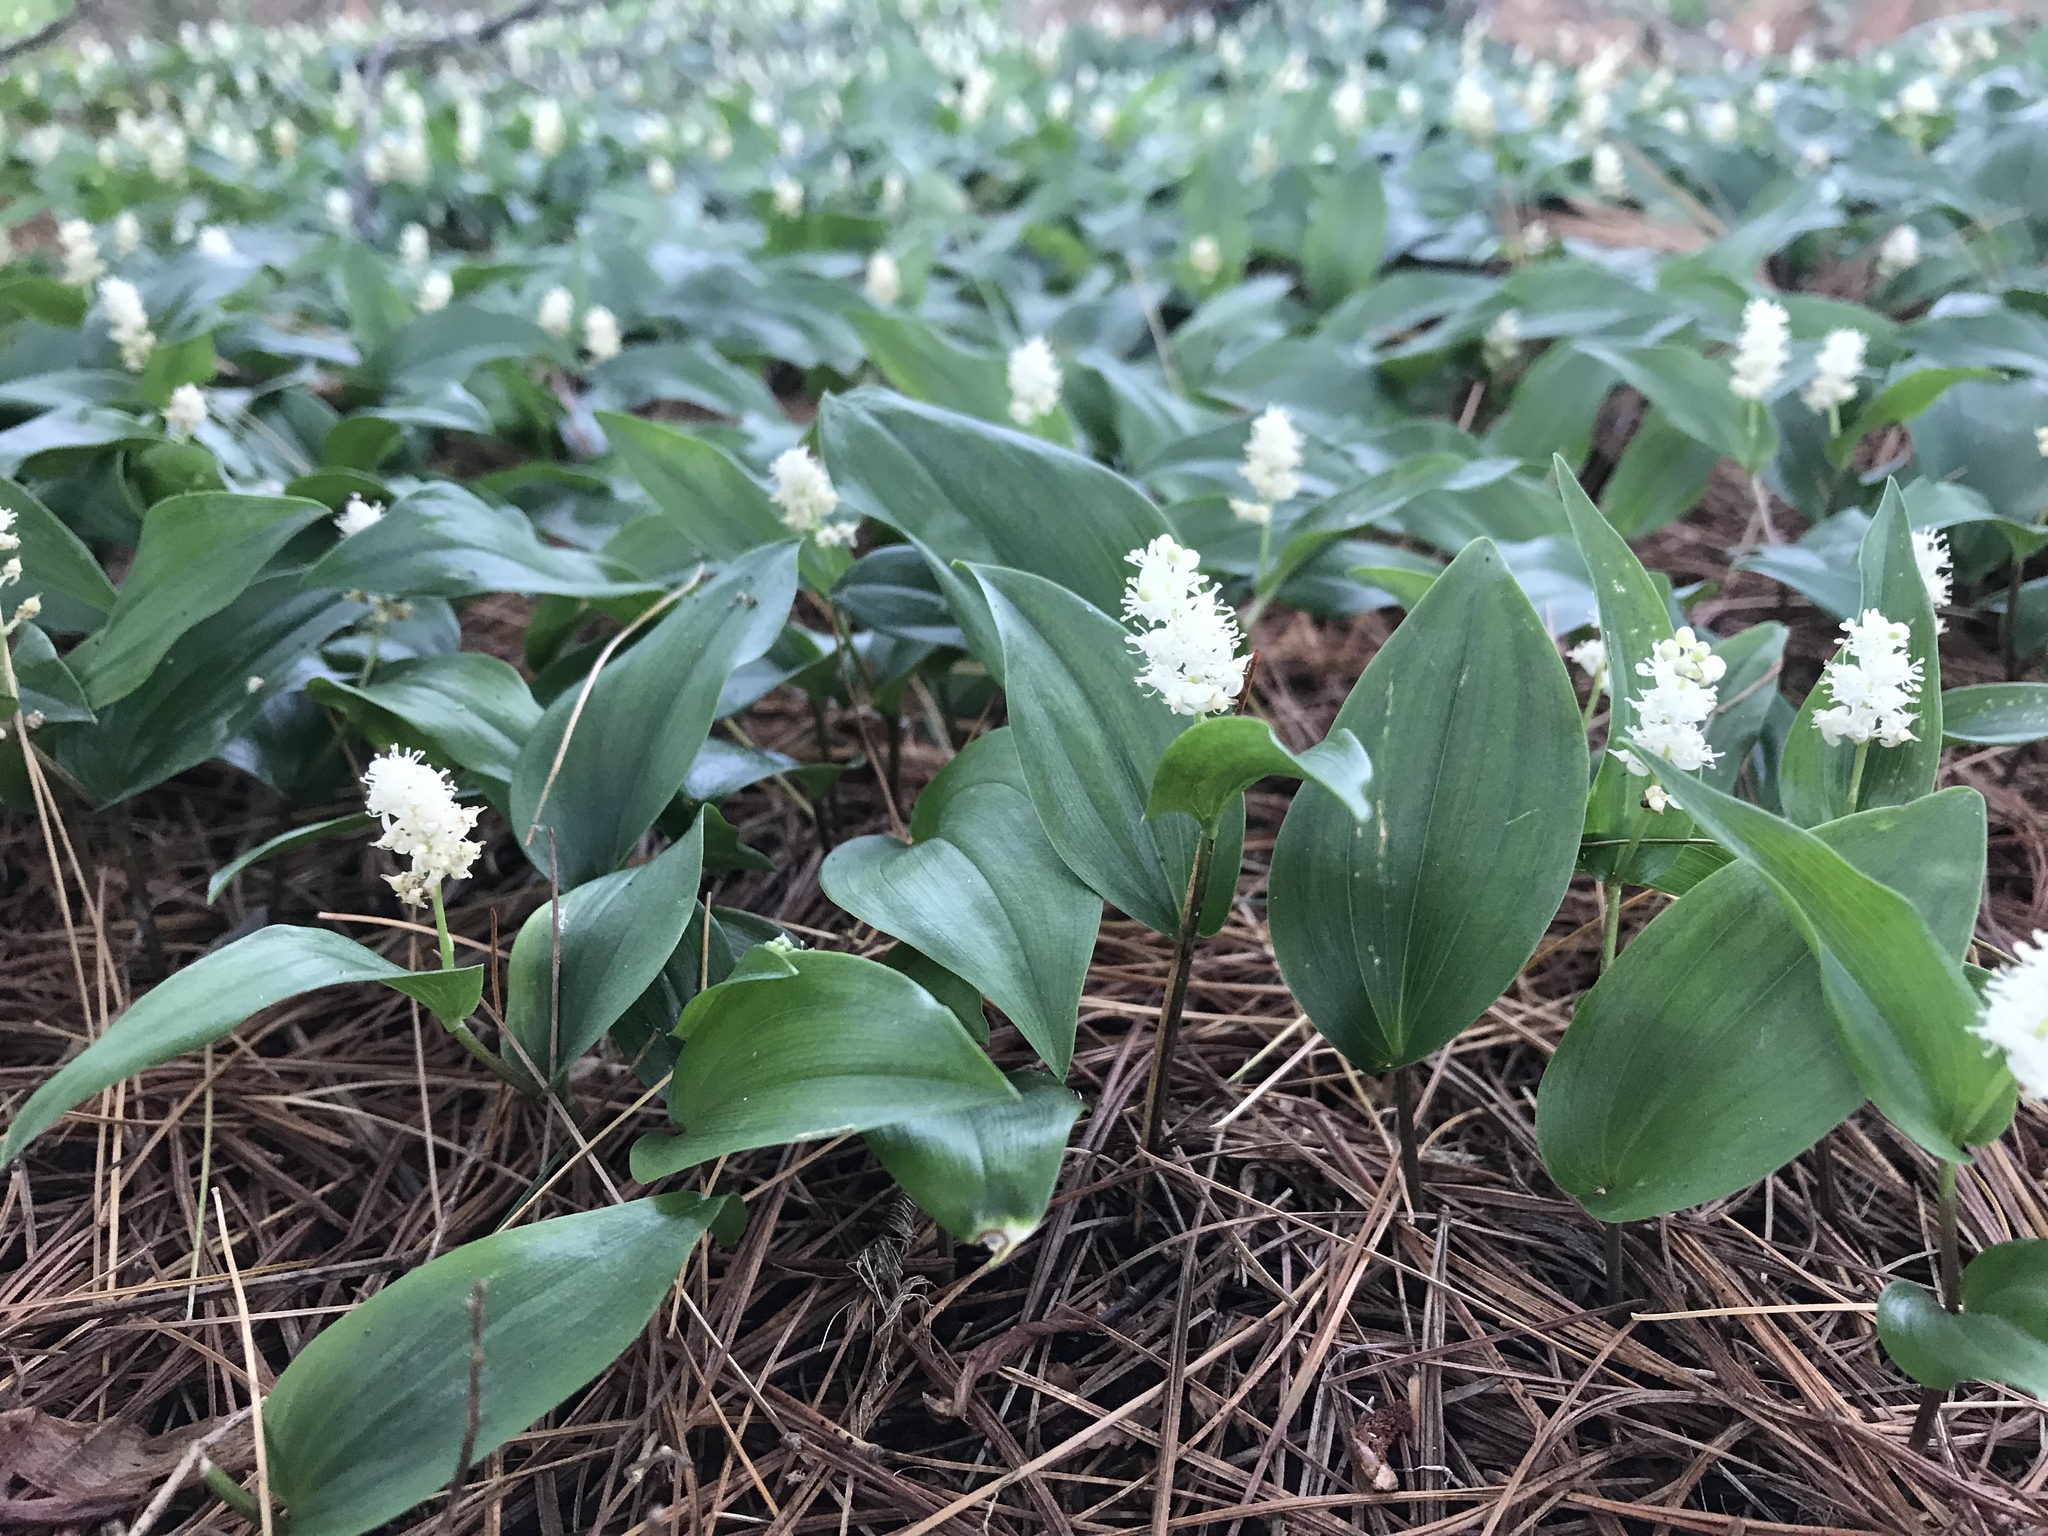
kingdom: Plantae
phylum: Tracheophyta
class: Liliopsida
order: Asparagales
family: Asparagaceae
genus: Maianthemum
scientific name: Maianthemum canadense
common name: False lily-of-the-valley
